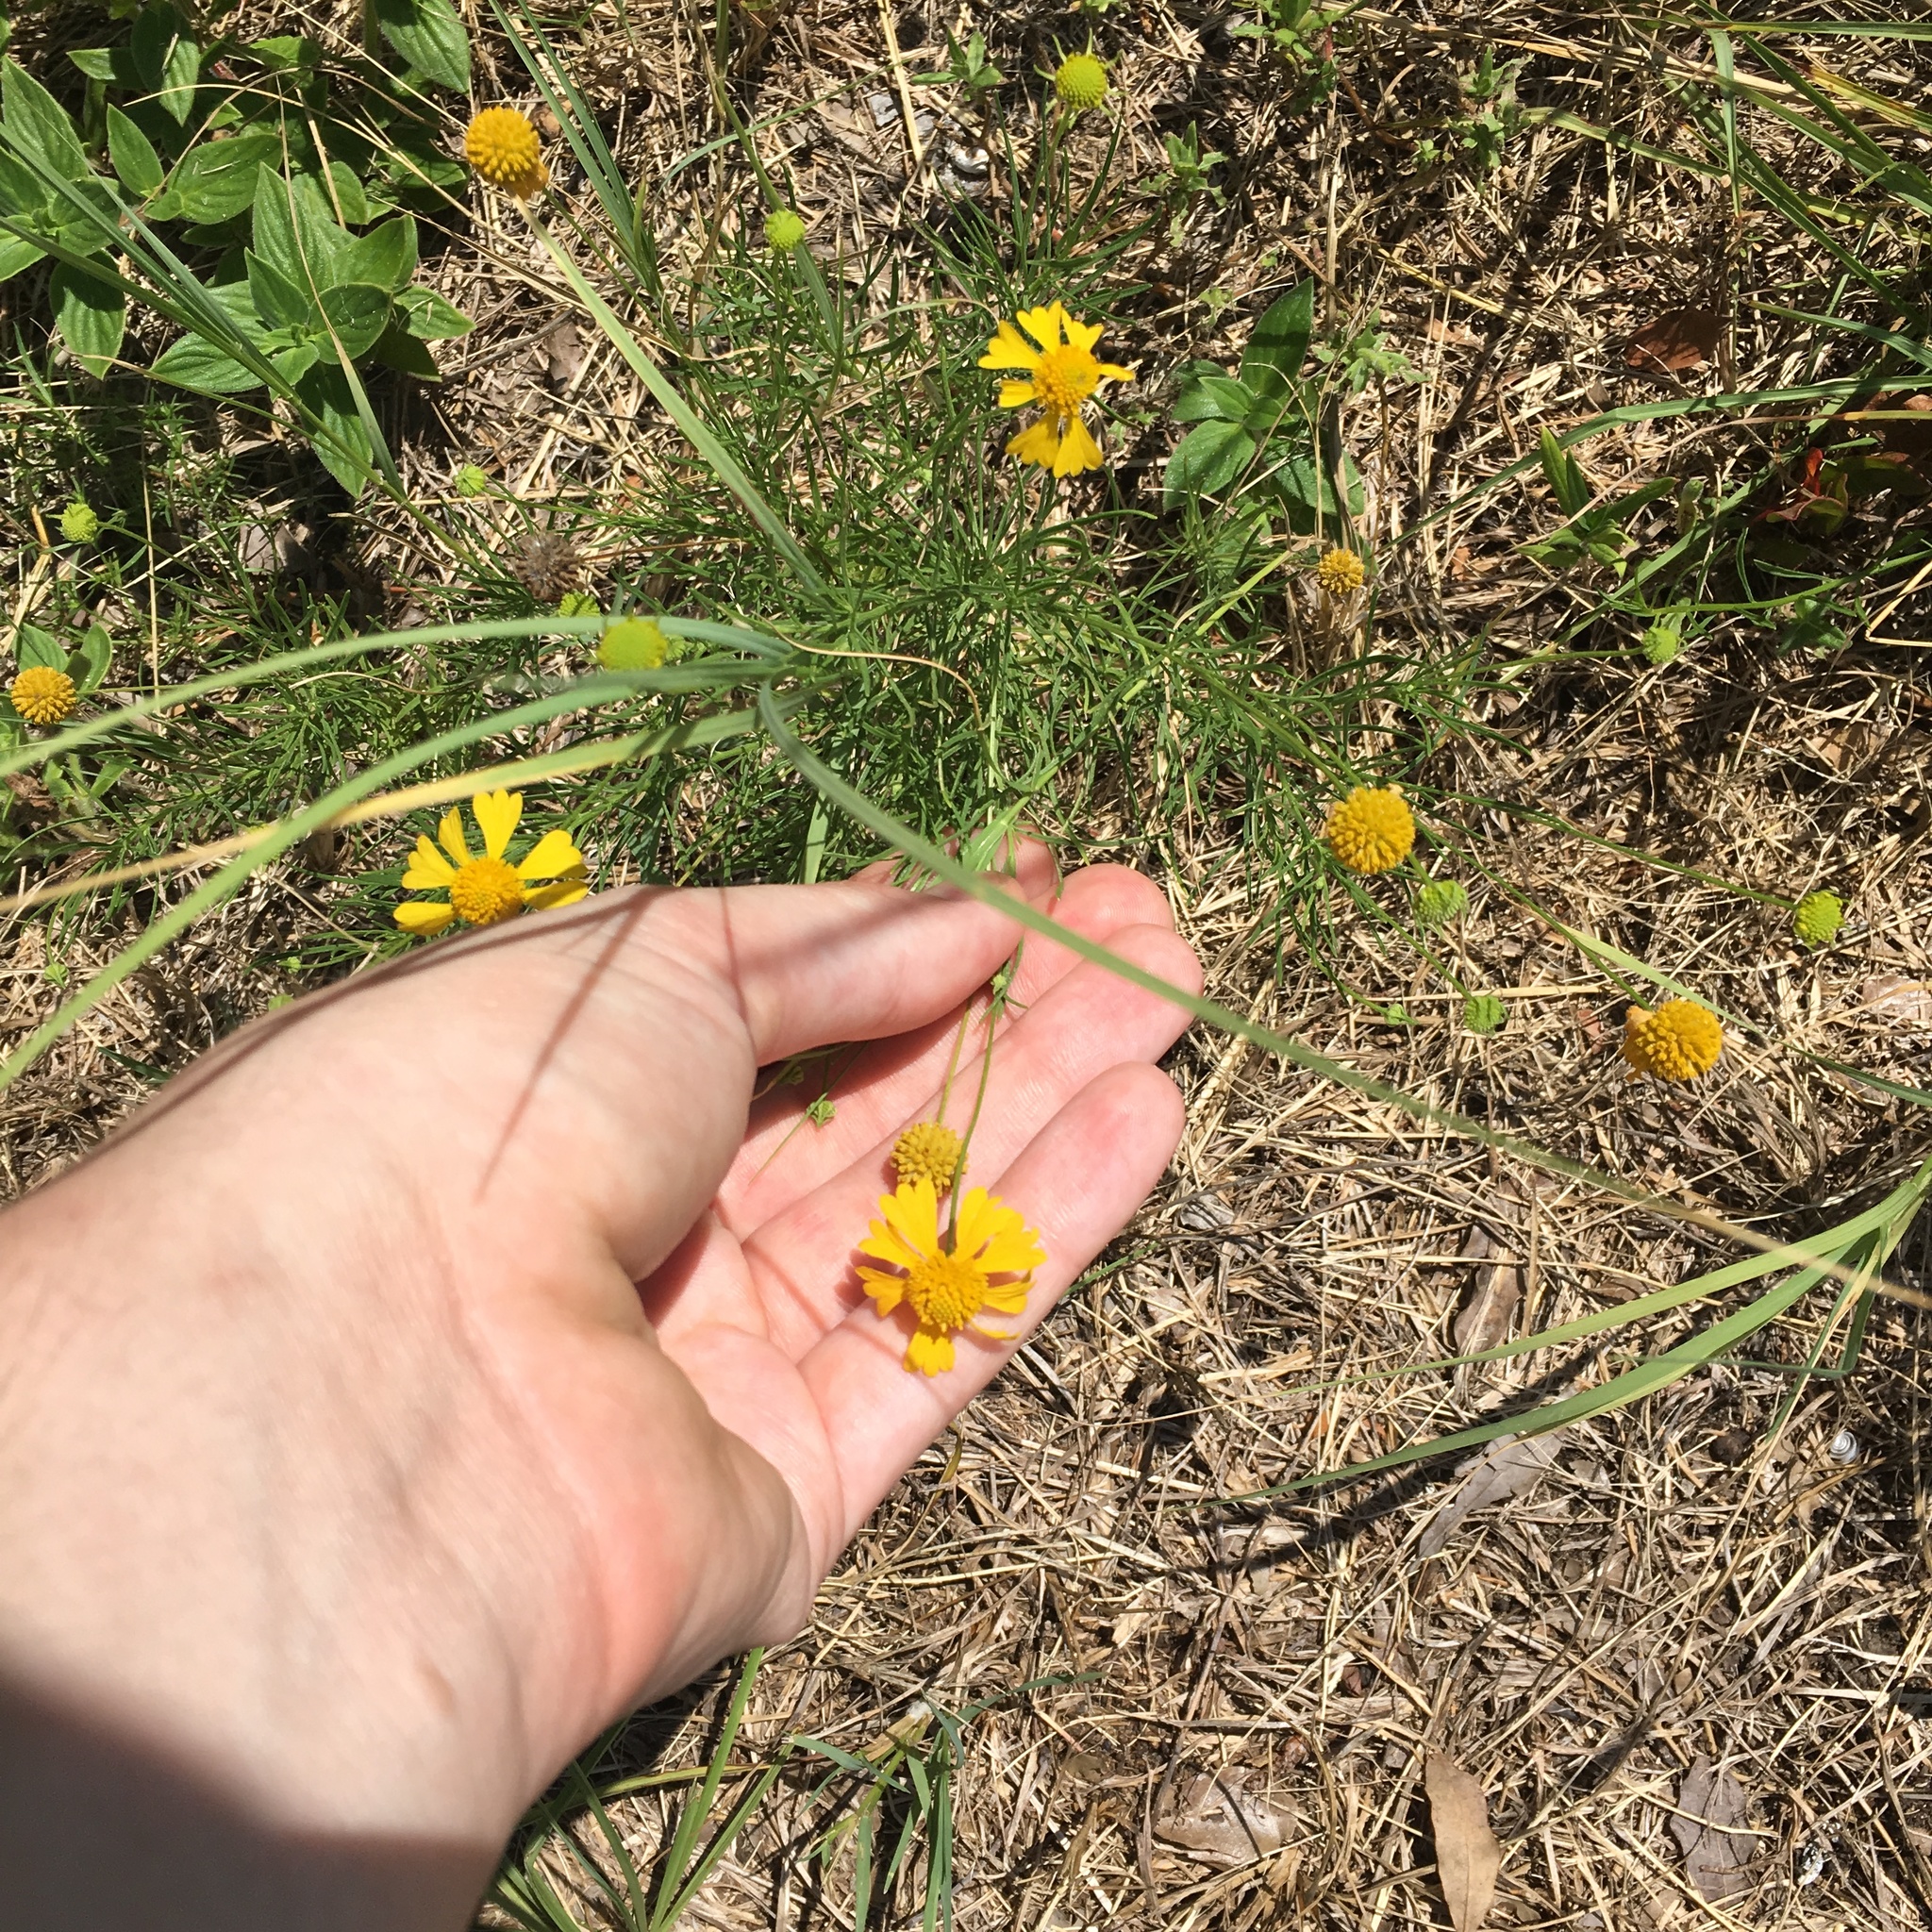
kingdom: Plantae
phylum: Tracheophyta
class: Magnoliopsida
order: Asterales
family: Asteraceae
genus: Helenium
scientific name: Helenium amarum
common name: Bitter sneezeweed
